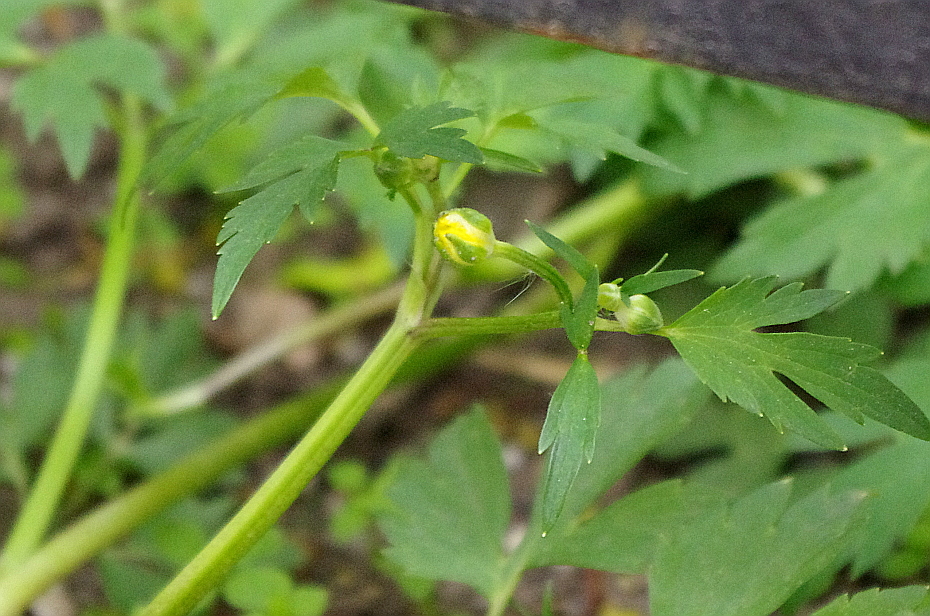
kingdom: Plantae
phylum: Tracheophyta
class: Magnoliopsida
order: Ranunculales
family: Ranunculaceae
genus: Ranunculus
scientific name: Ranunculus repens
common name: Creeping buttercup
